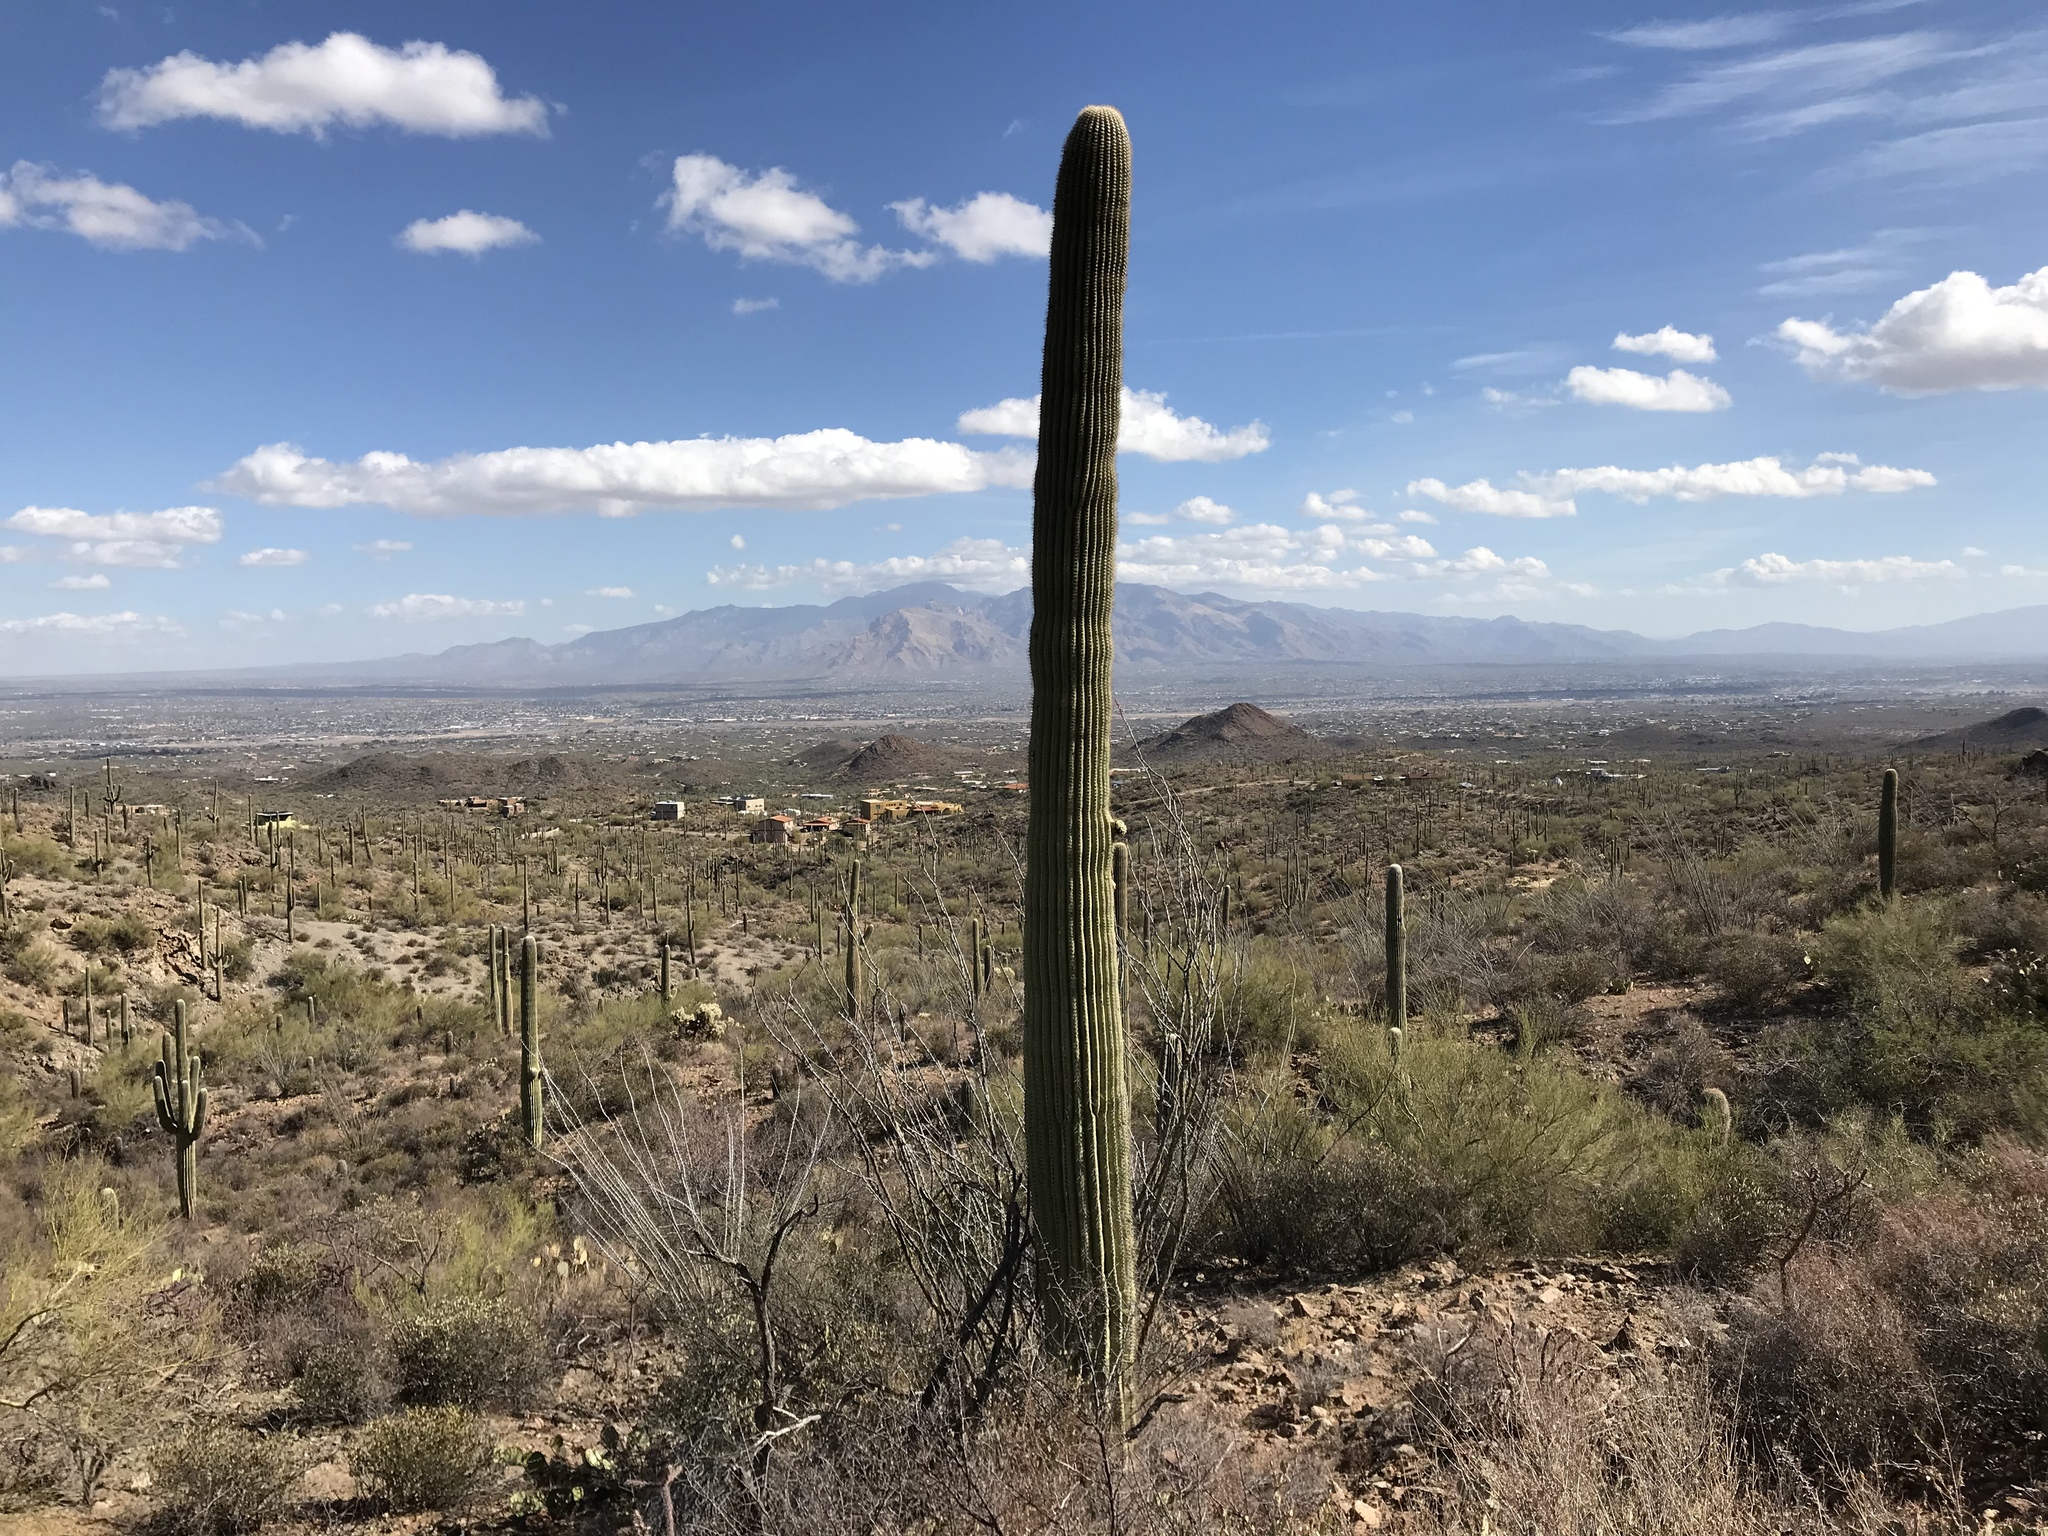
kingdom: Plantae
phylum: Tracheophyta
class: Magnoliopsida
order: Caryophyllales
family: Cactaceae
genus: Carnegiea
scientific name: Carnegiea gigantea
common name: Saguaro
